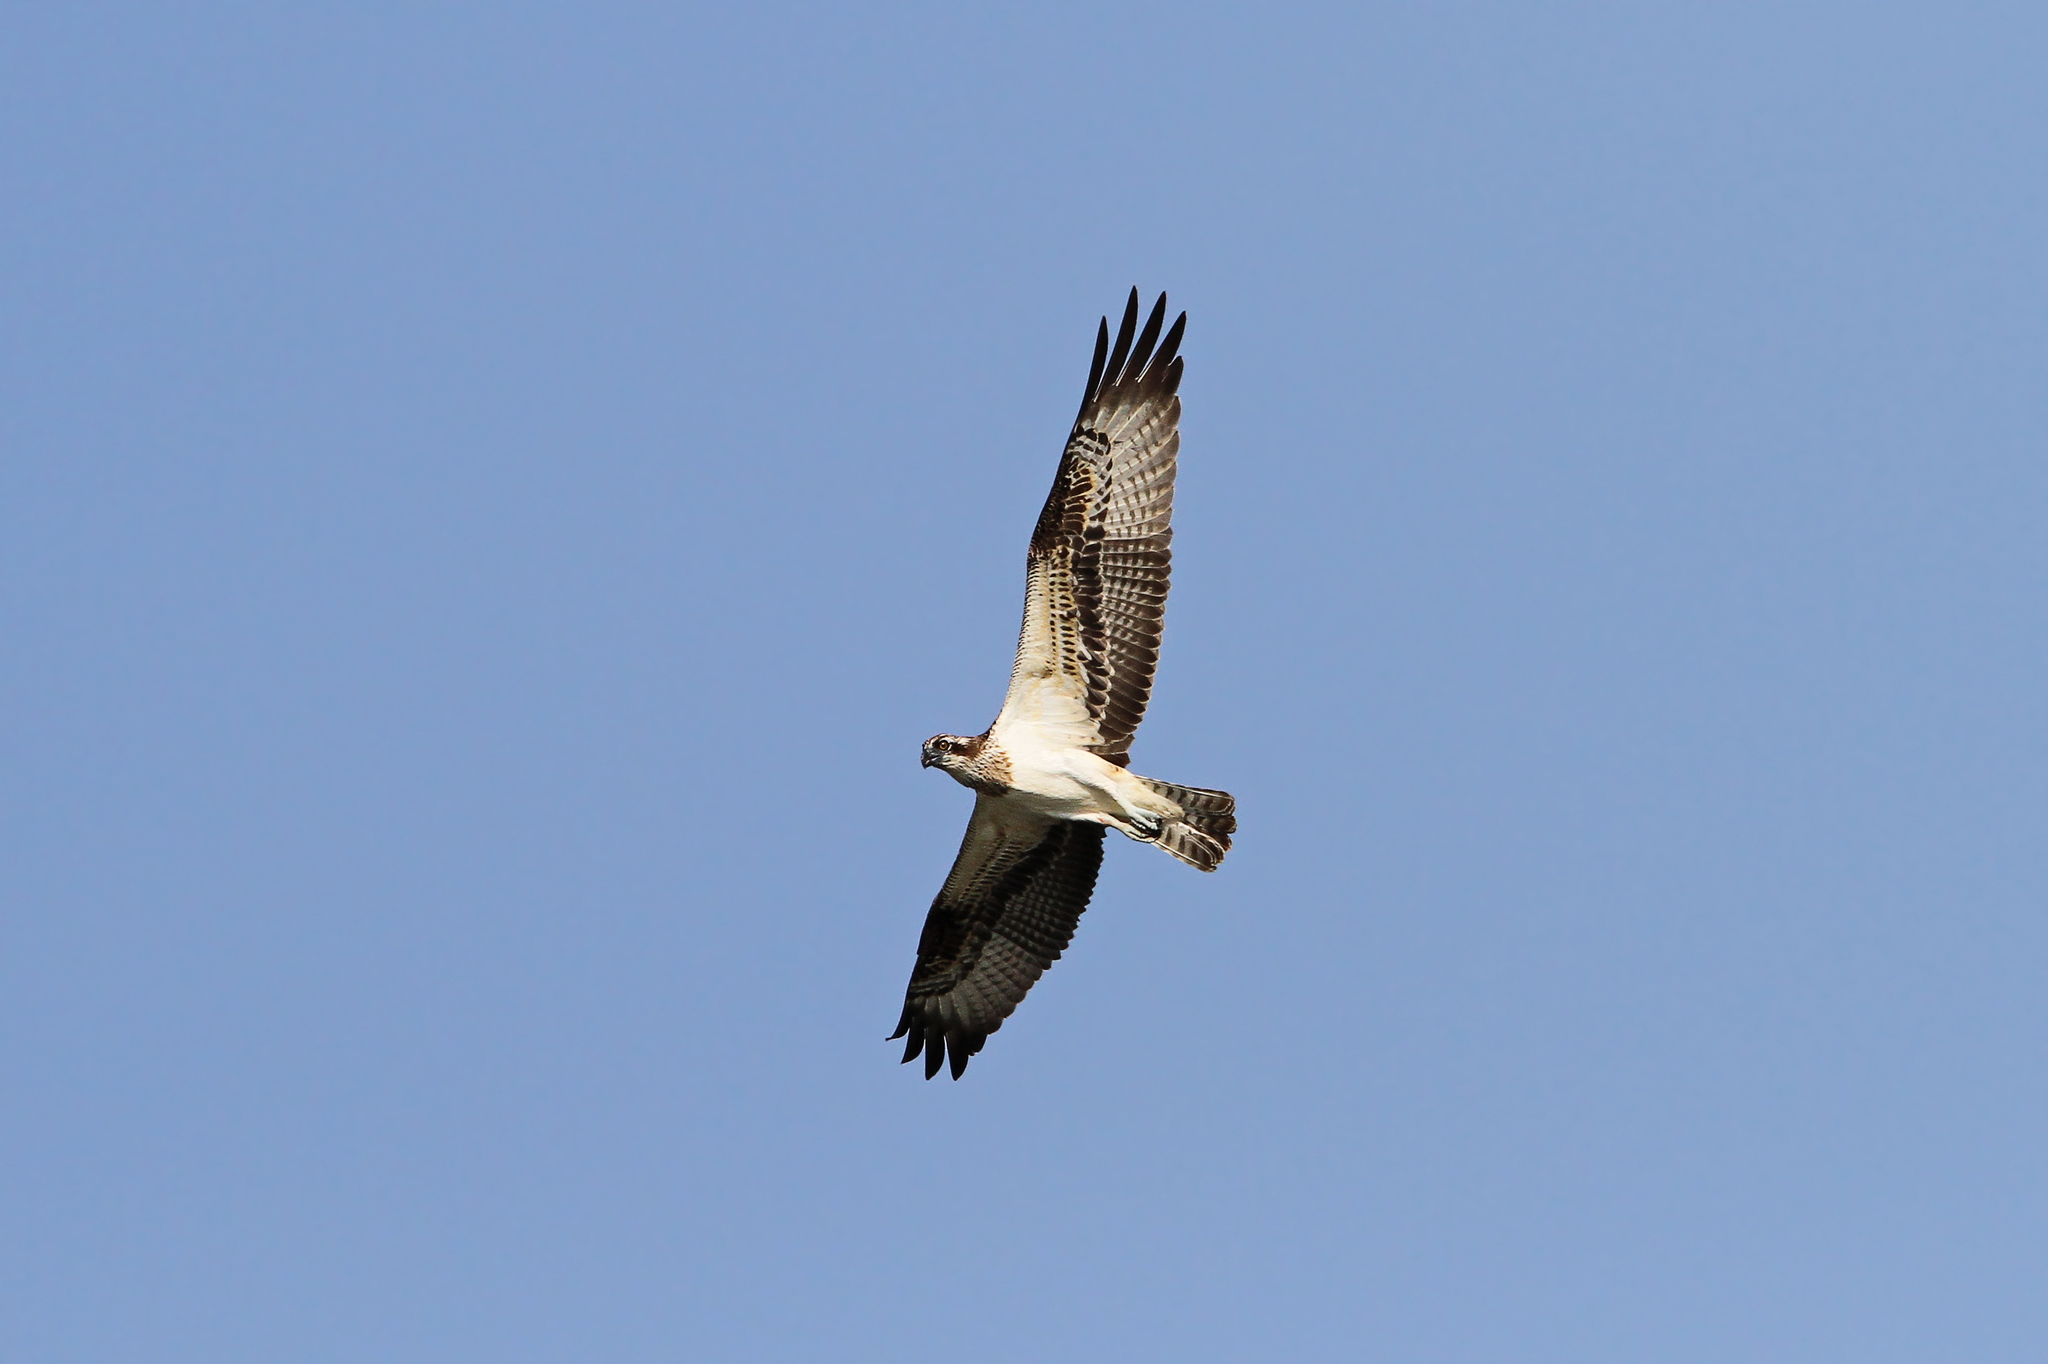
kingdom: Animalia
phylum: Chordata
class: Aves
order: Accipitriformes
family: Pandionidae
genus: Pandion
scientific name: Pandion haliaetus
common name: Osprey
